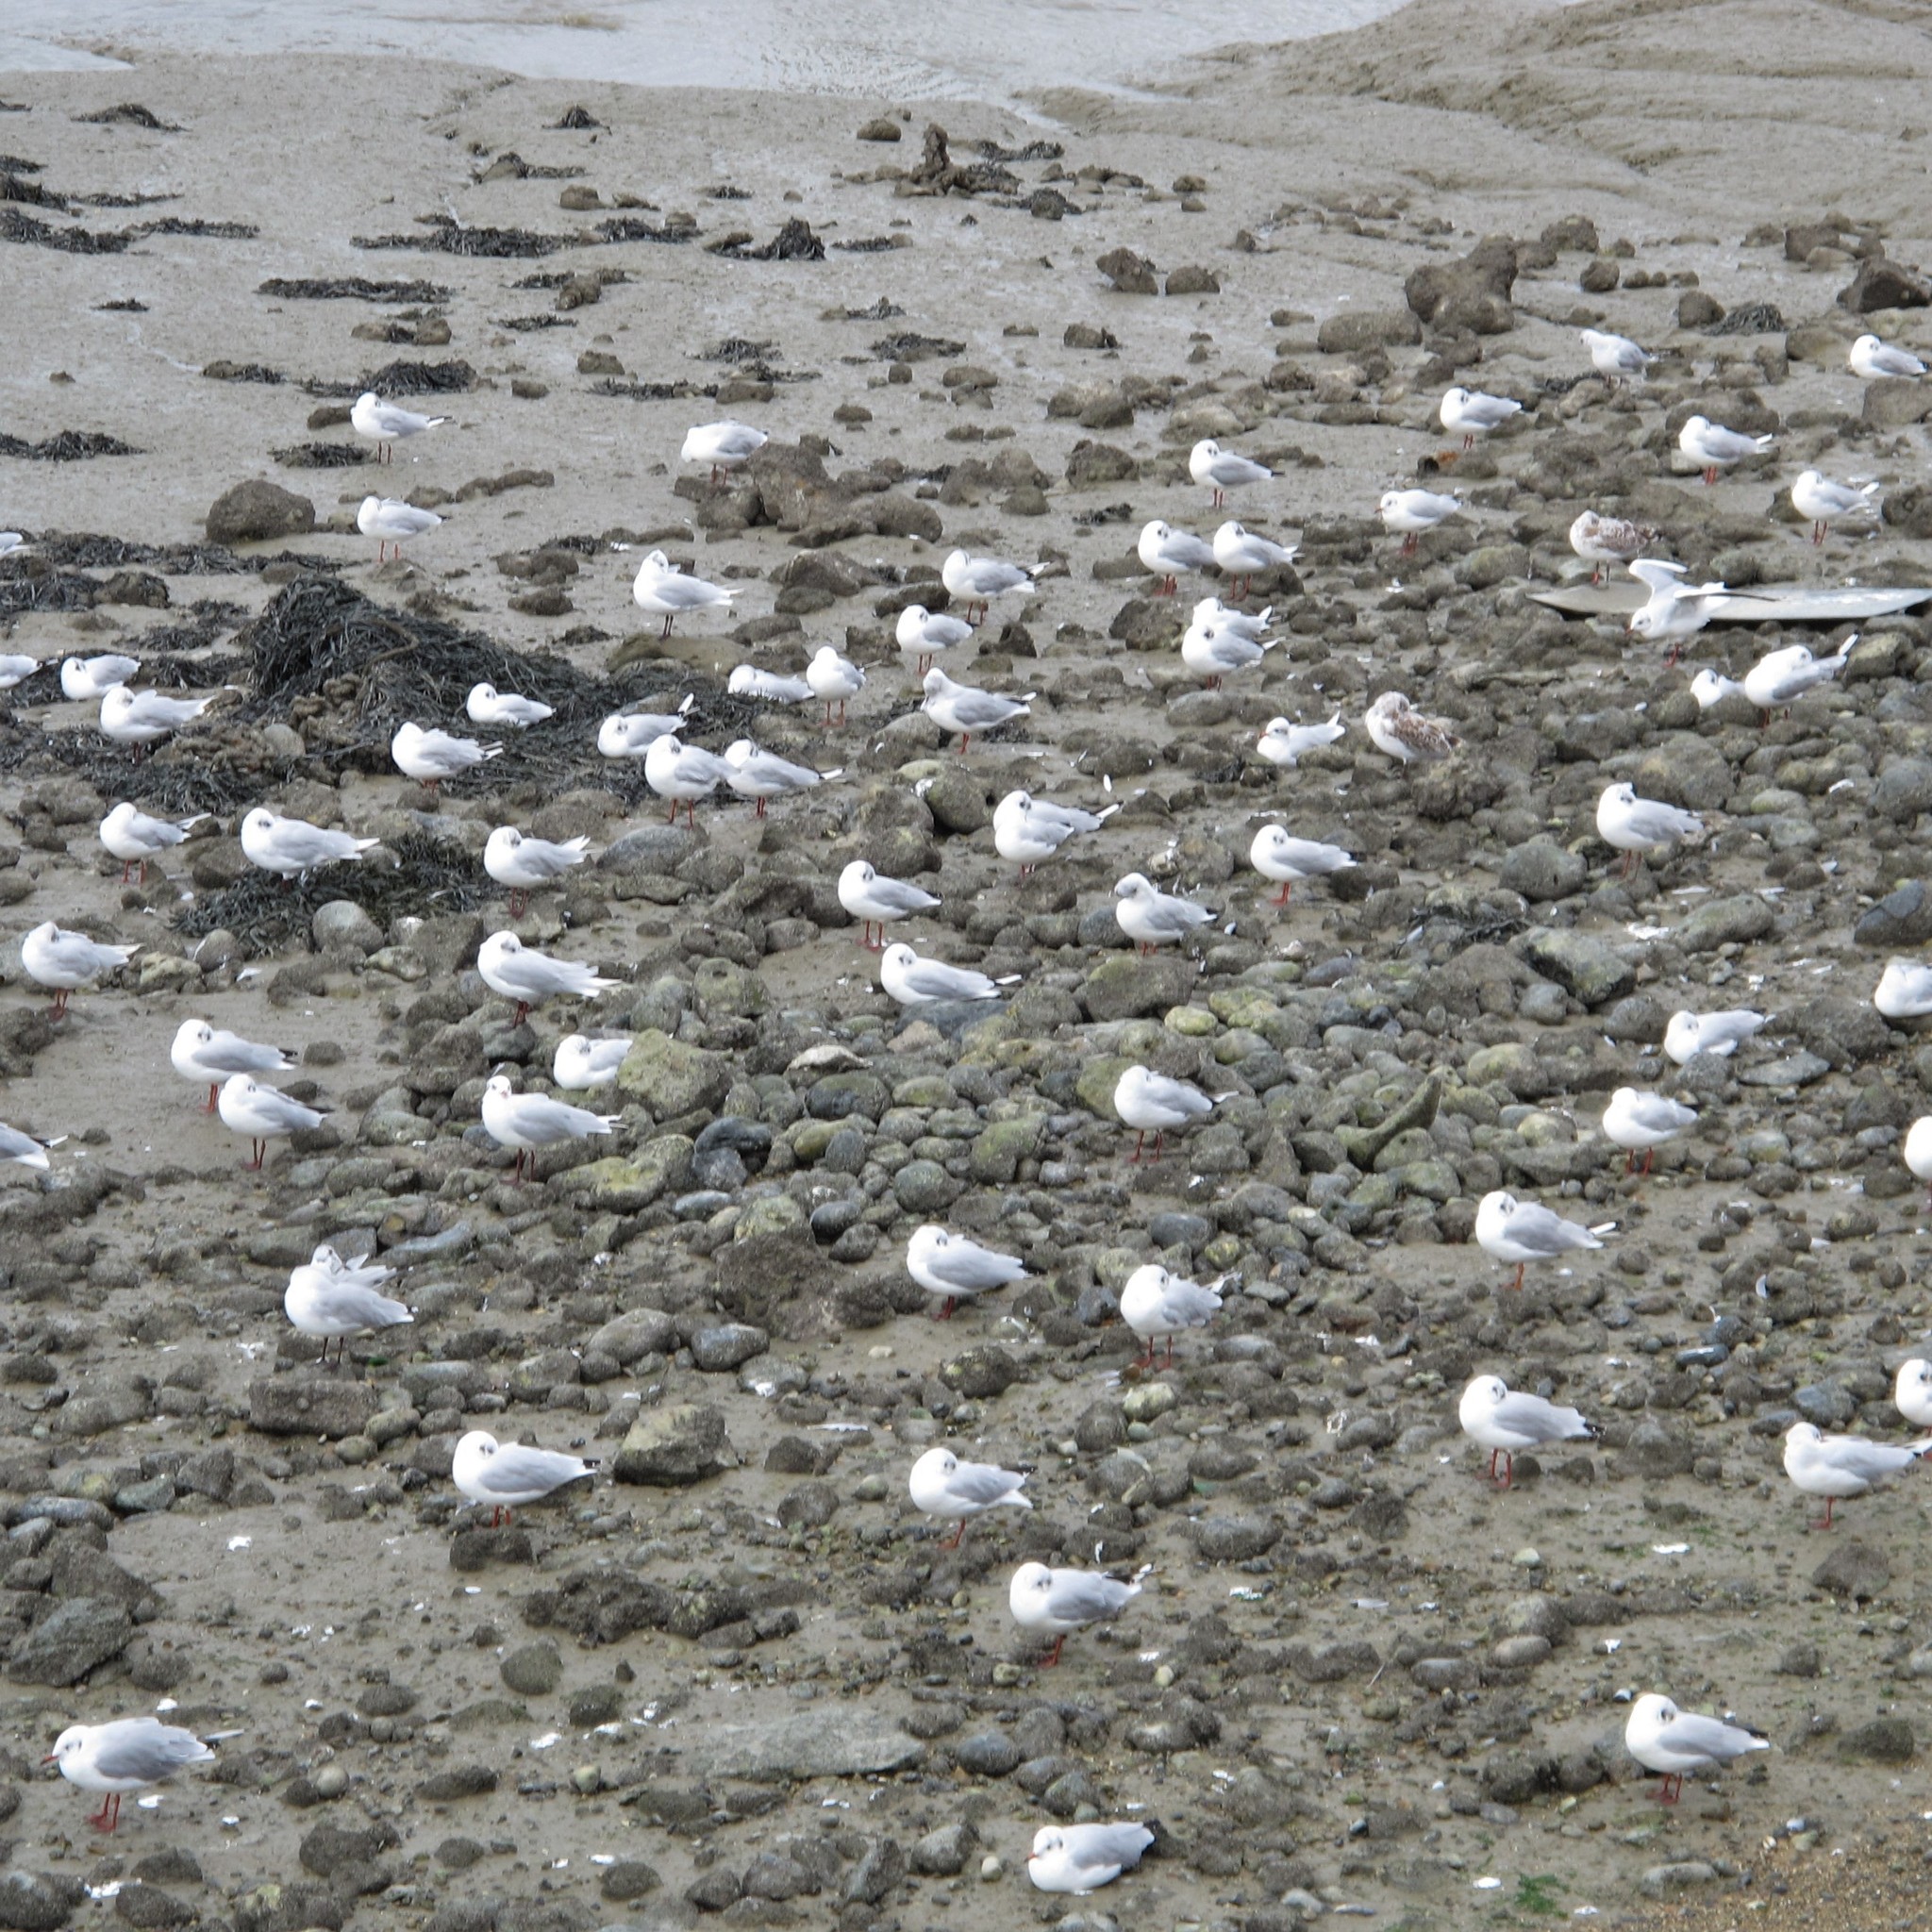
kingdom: Animalia
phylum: Chordata
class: Aves
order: Charadriiformes
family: Laridae
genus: Chroicocephalus
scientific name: Chroicocephalus ridibundus
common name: Black-headed gull
